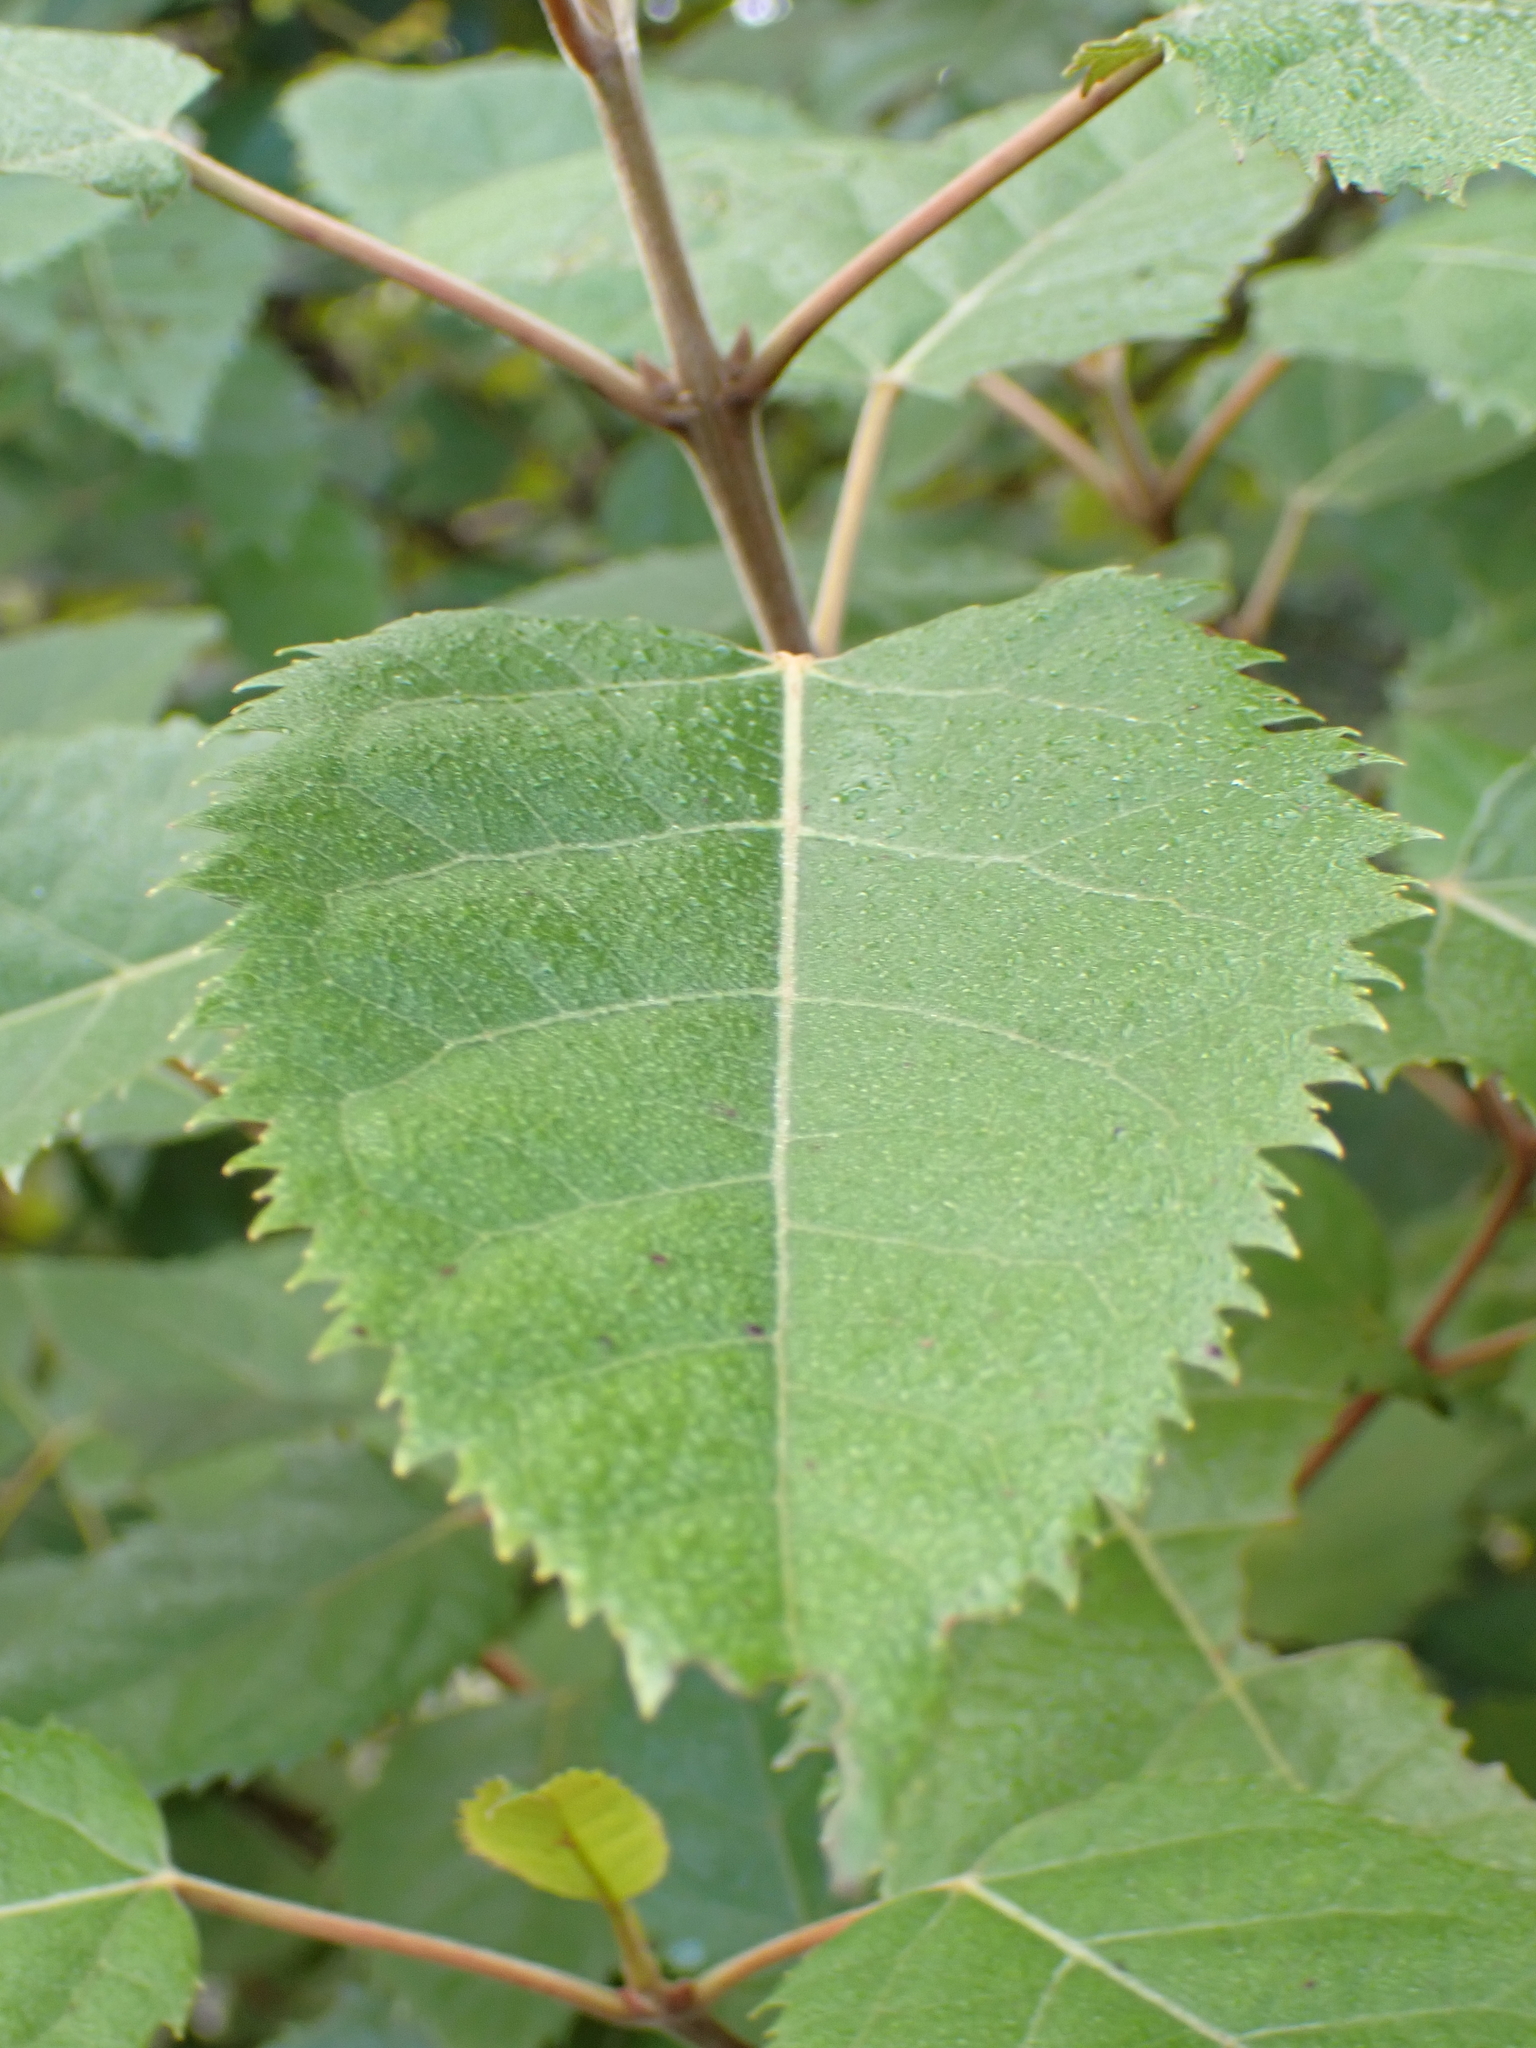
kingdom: Plantae
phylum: Tracheophyta
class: Magnoliopsida
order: Oxalidales
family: Elaeocarpaceae
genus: Aristotelia
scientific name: Aristotelia serrata
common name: New zealand wineberry
